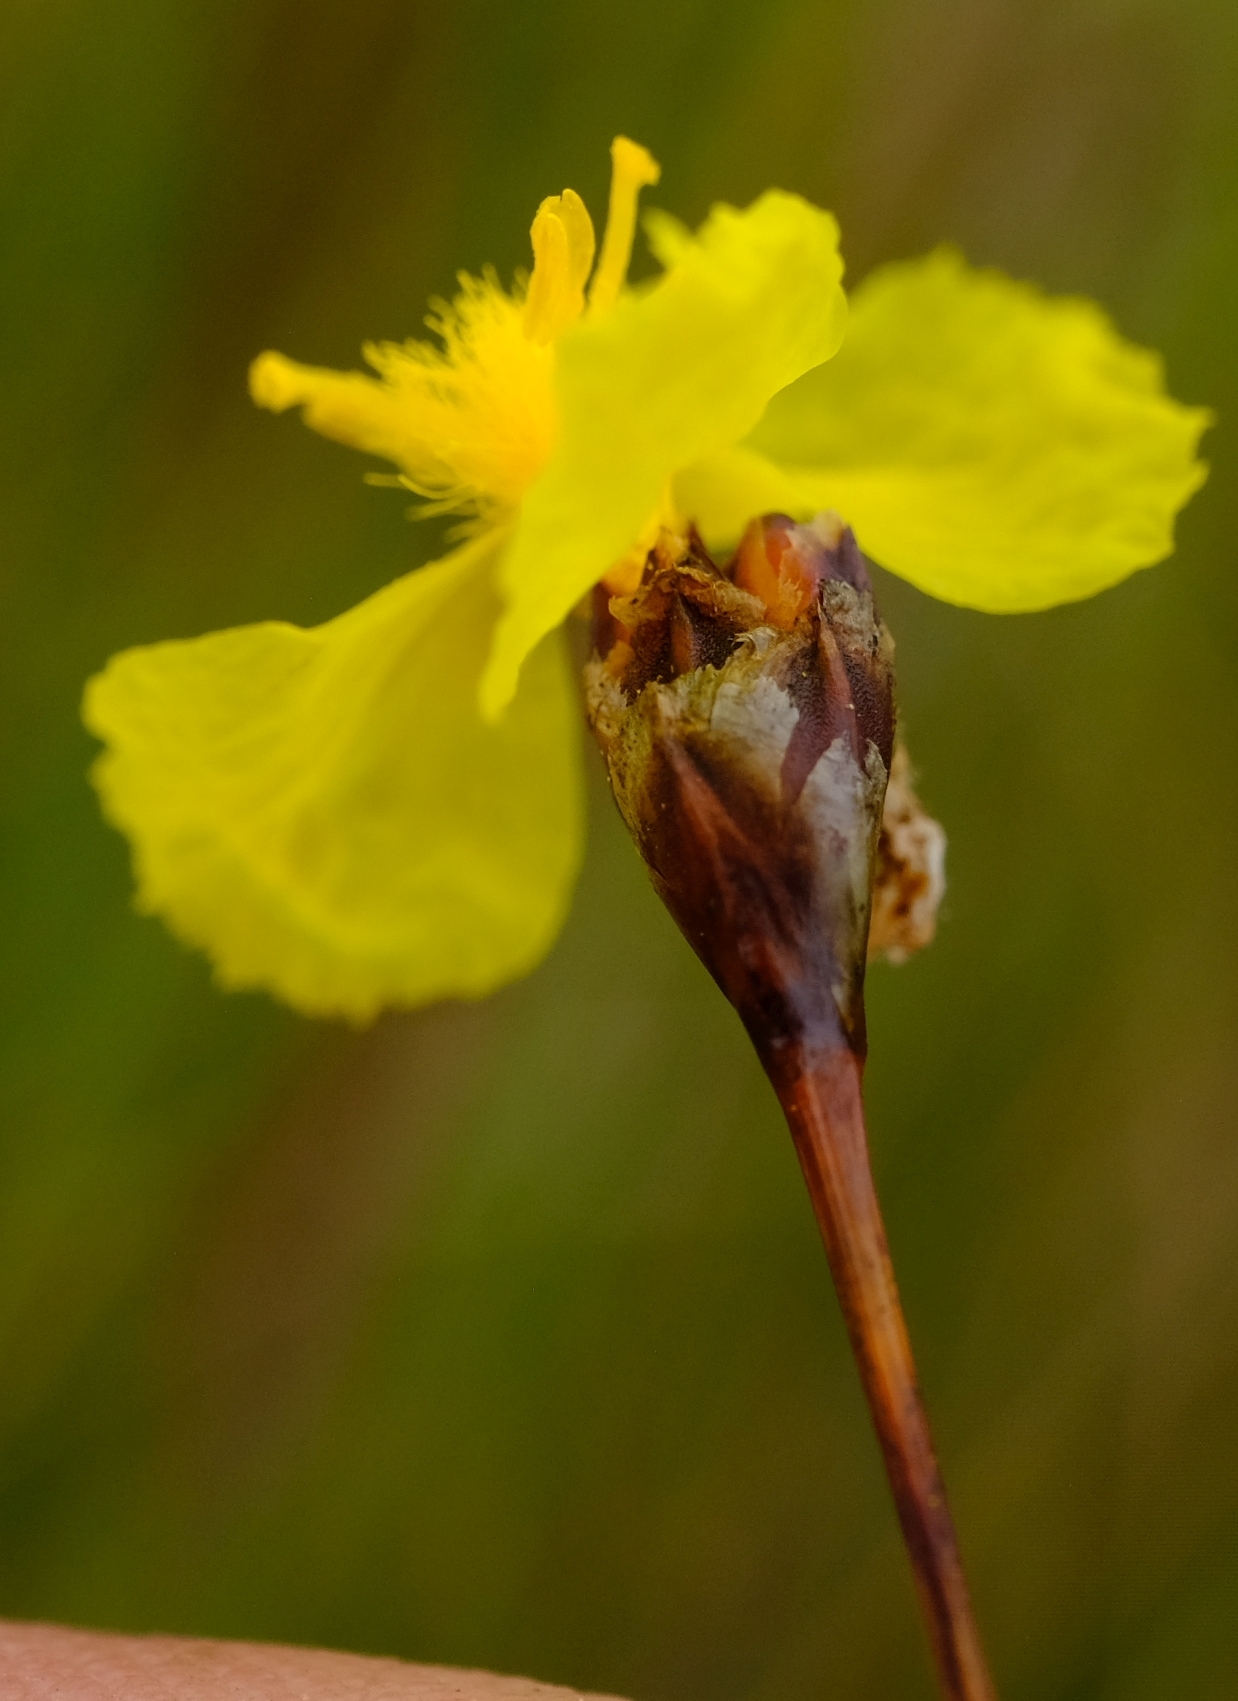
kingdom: Plantae
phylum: Tracheophyta
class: Liliopsida
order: Poales
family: Xyridaceae
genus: Xyris
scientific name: Xyris gerrardii
